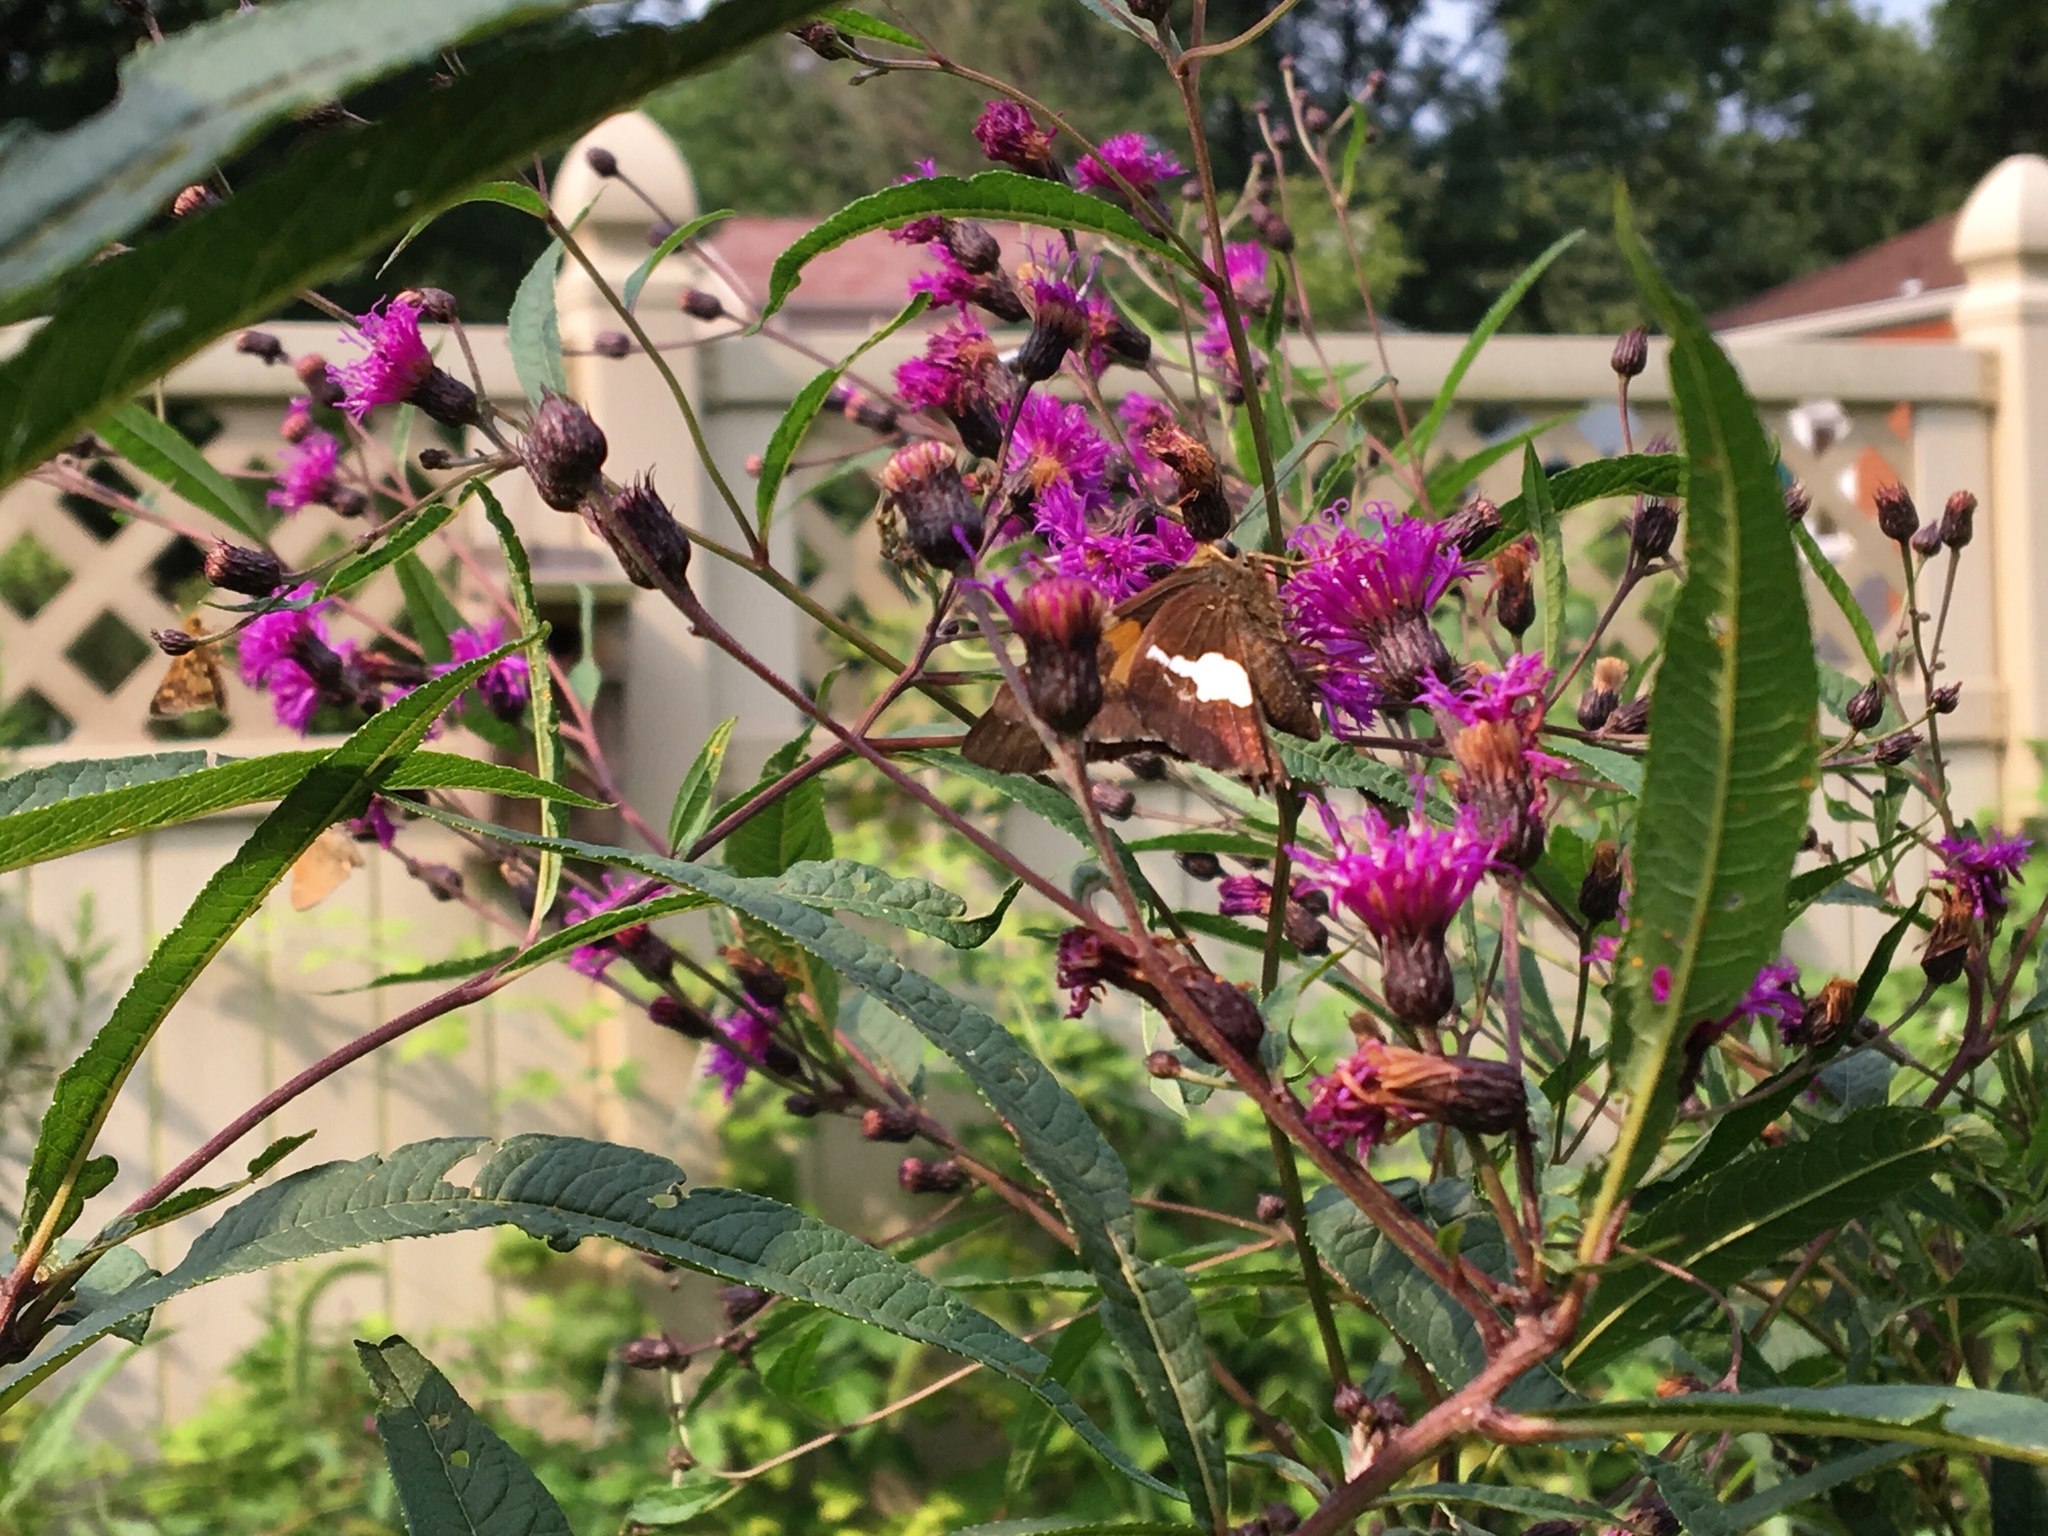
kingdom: Animalia
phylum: Arthropoda
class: Insecta
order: Lepidoptera
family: Hesperiidae
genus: Epargyreus
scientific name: Epargyreus clarus
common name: Silver-spotted skipper
